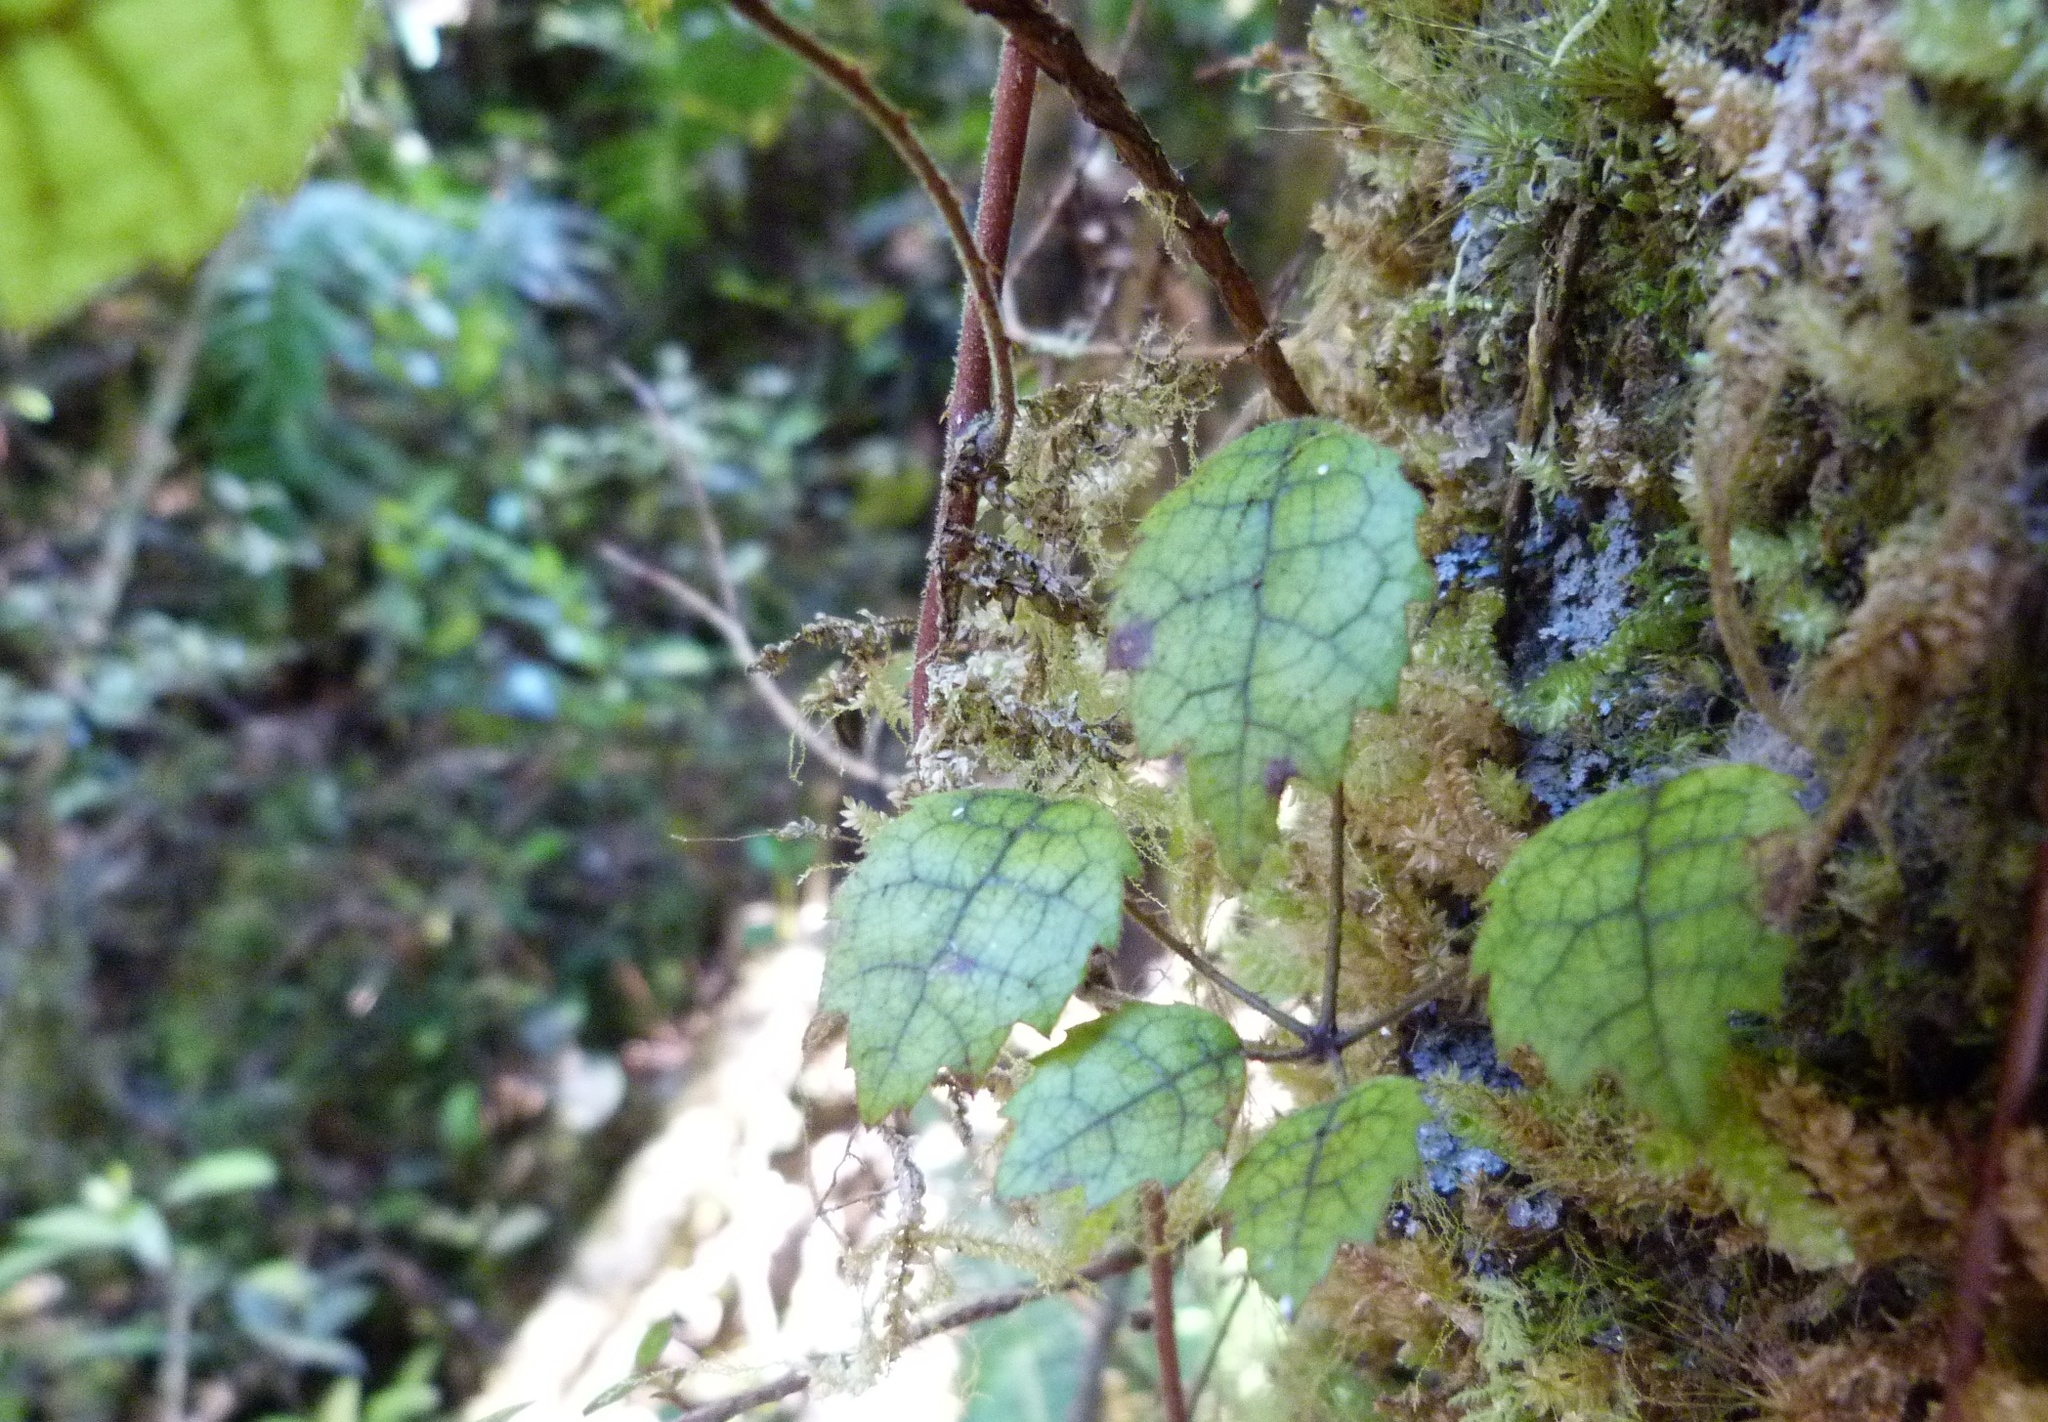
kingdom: Plantae
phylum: Tracheophyta
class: Magnoliopsida
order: Rosales
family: Rosaceae
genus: Rubus
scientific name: Rubus australis
